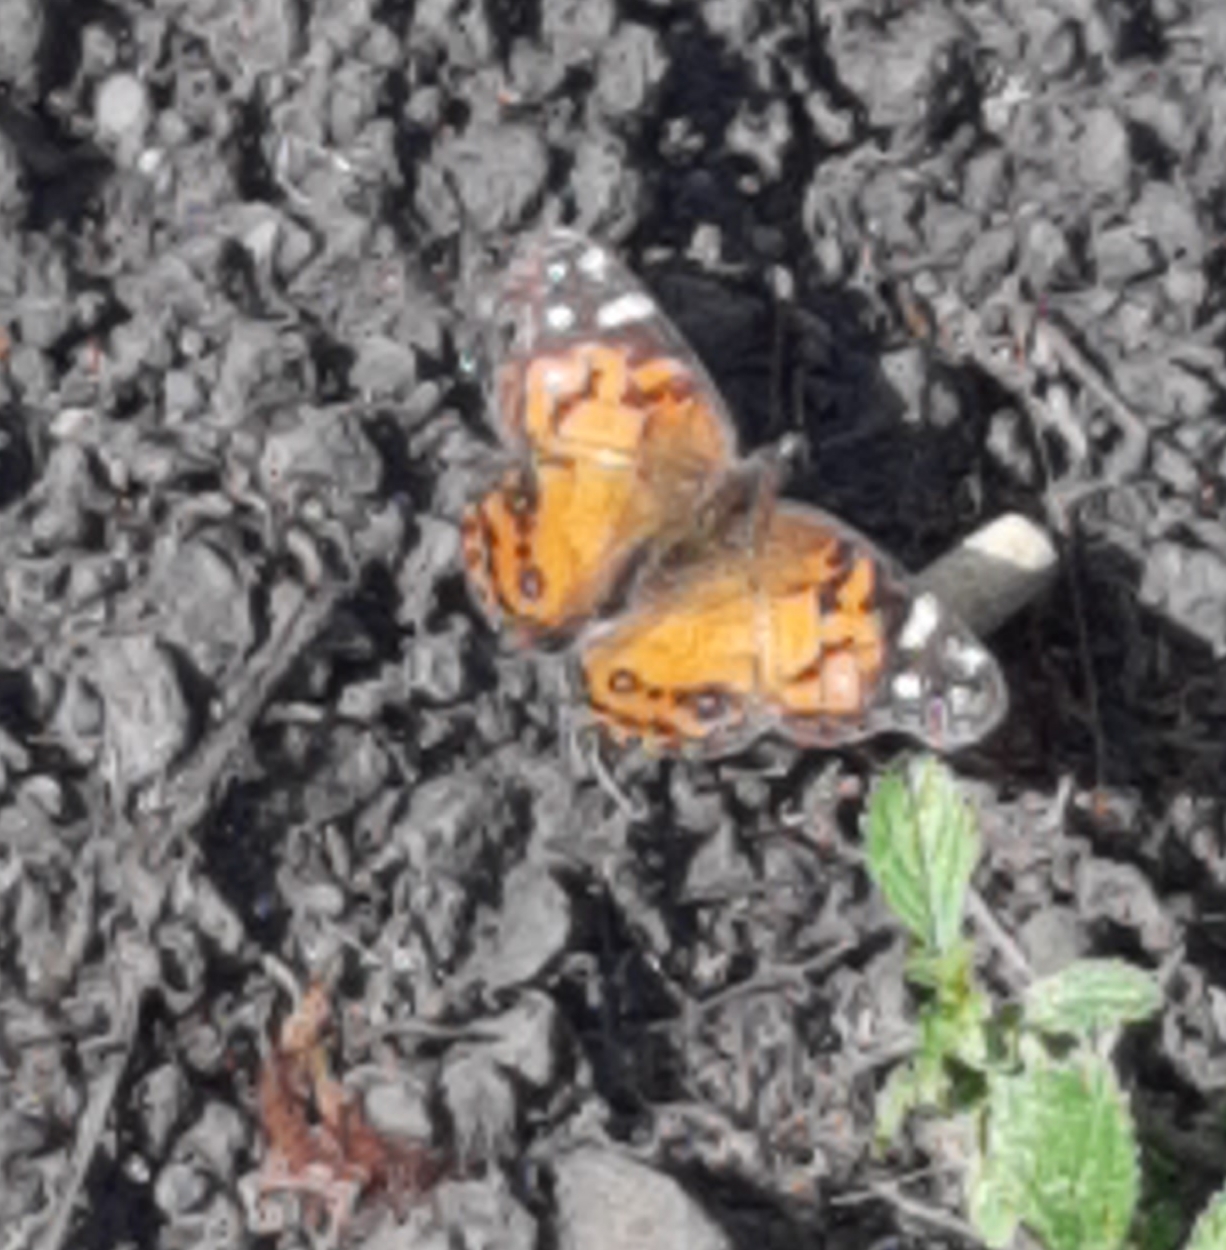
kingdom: Animalia
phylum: Arthropoda
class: Insecta
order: Lepidoptera
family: Nymphalidae
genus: Vanessa
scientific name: Vanessa virginiensis
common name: American lady
